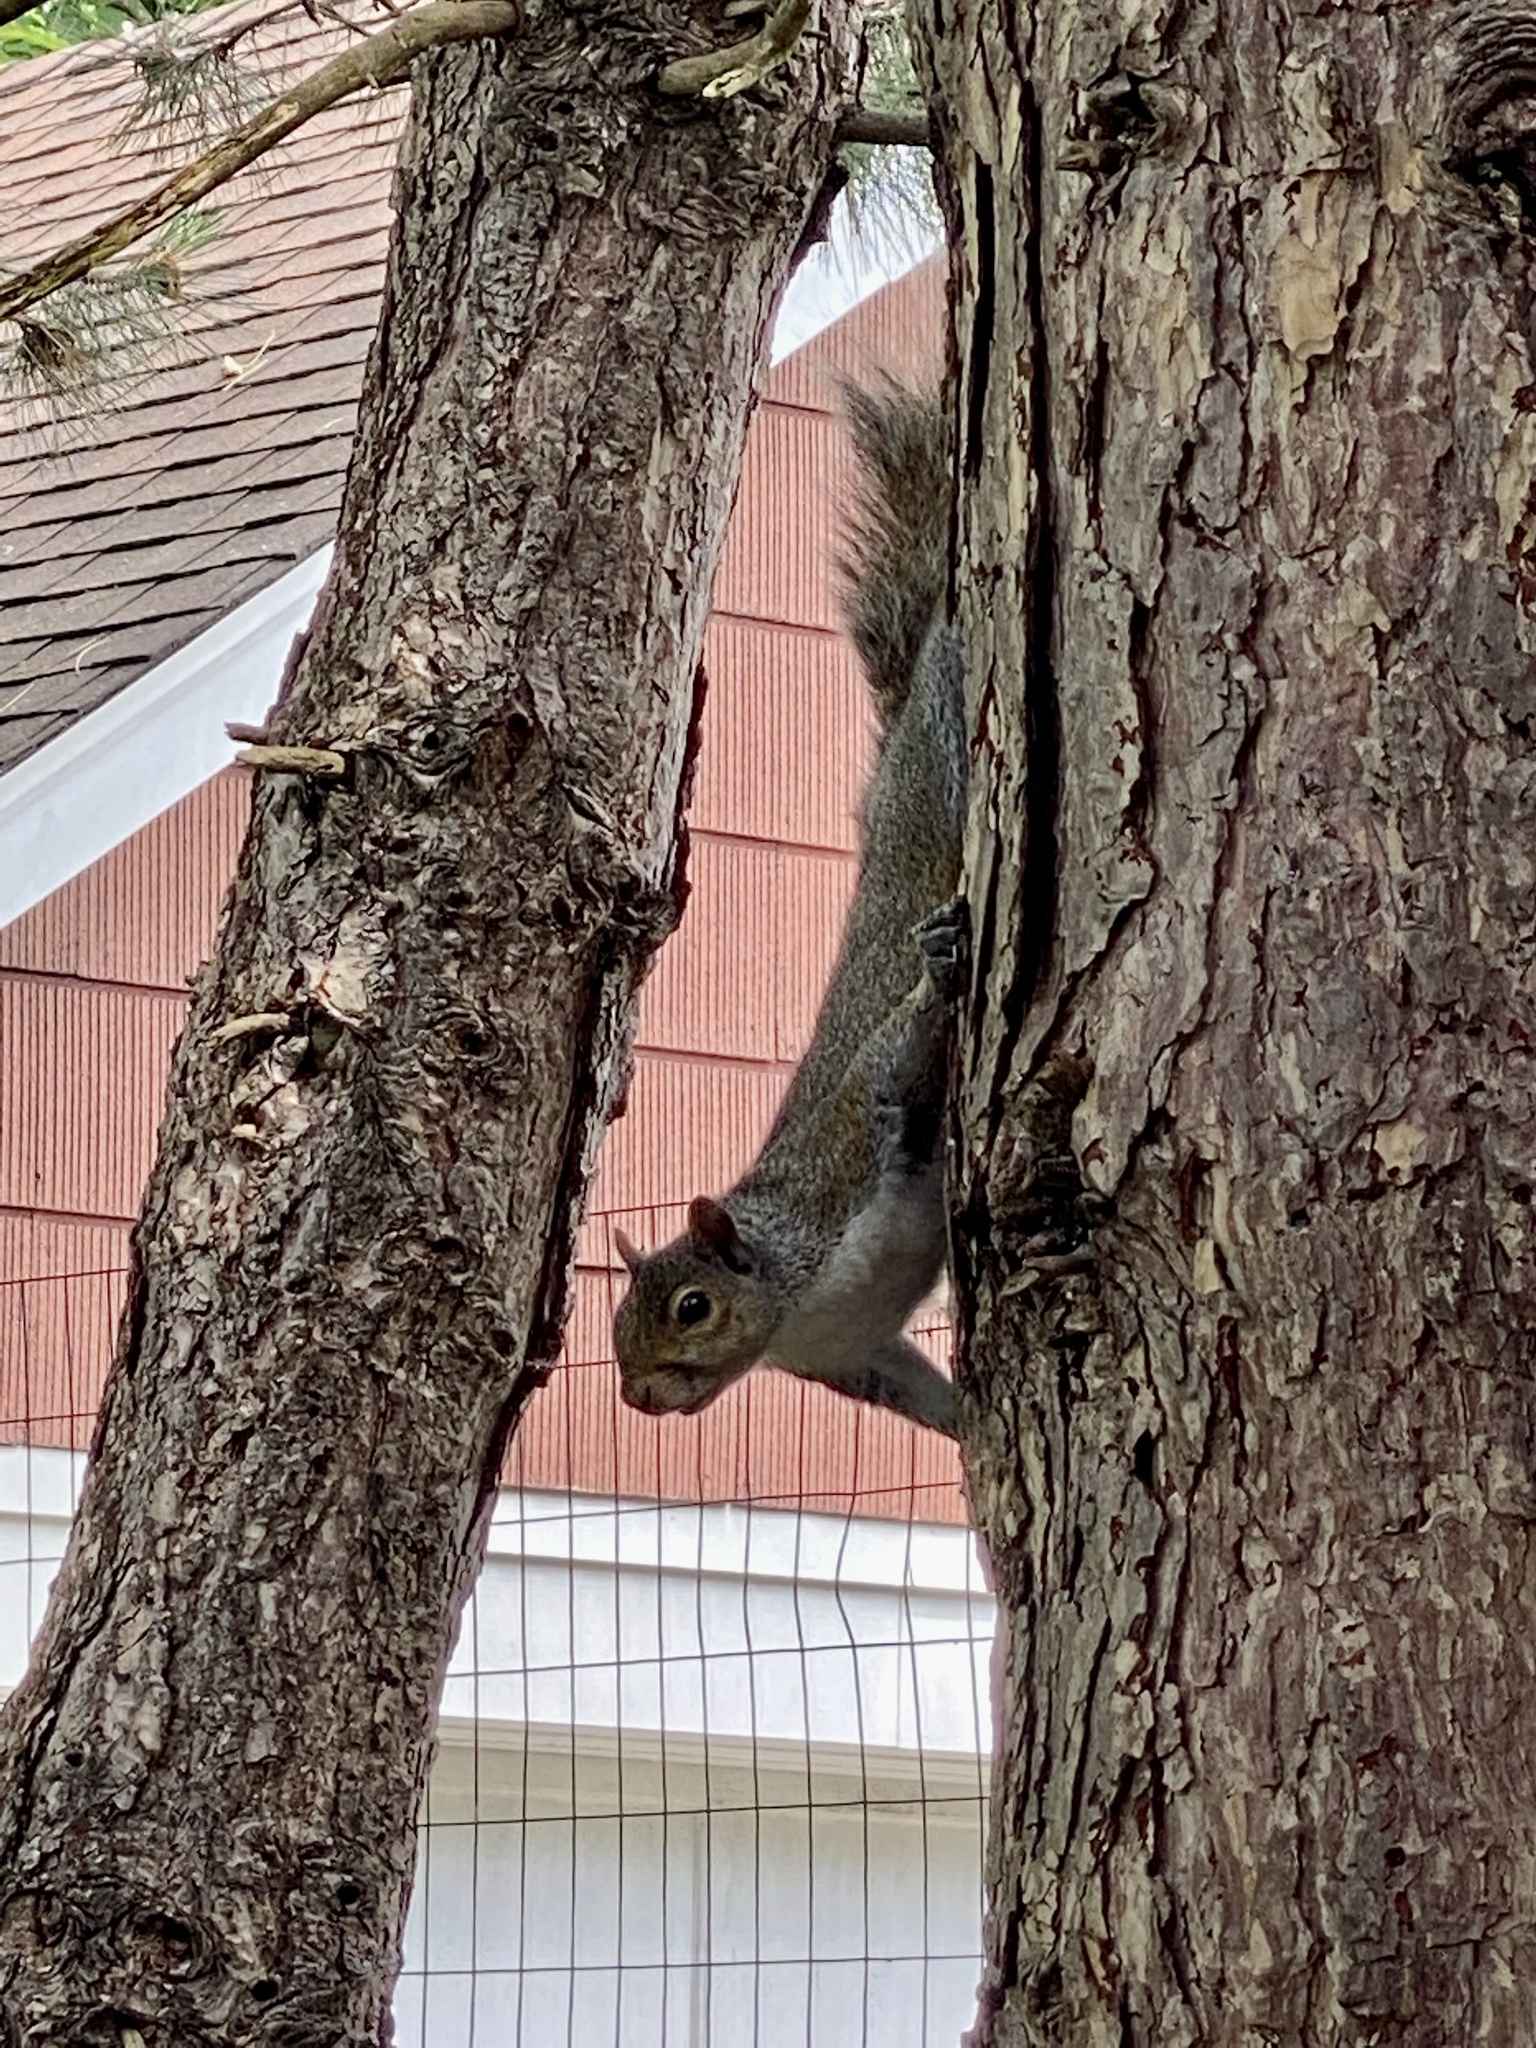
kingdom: Animalia
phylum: Chordata
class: Mammalia
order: Rodentia
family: Sciuridae
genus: Sciurus
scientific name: Sciurus carolinensis
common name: Eastern gray squirrel
